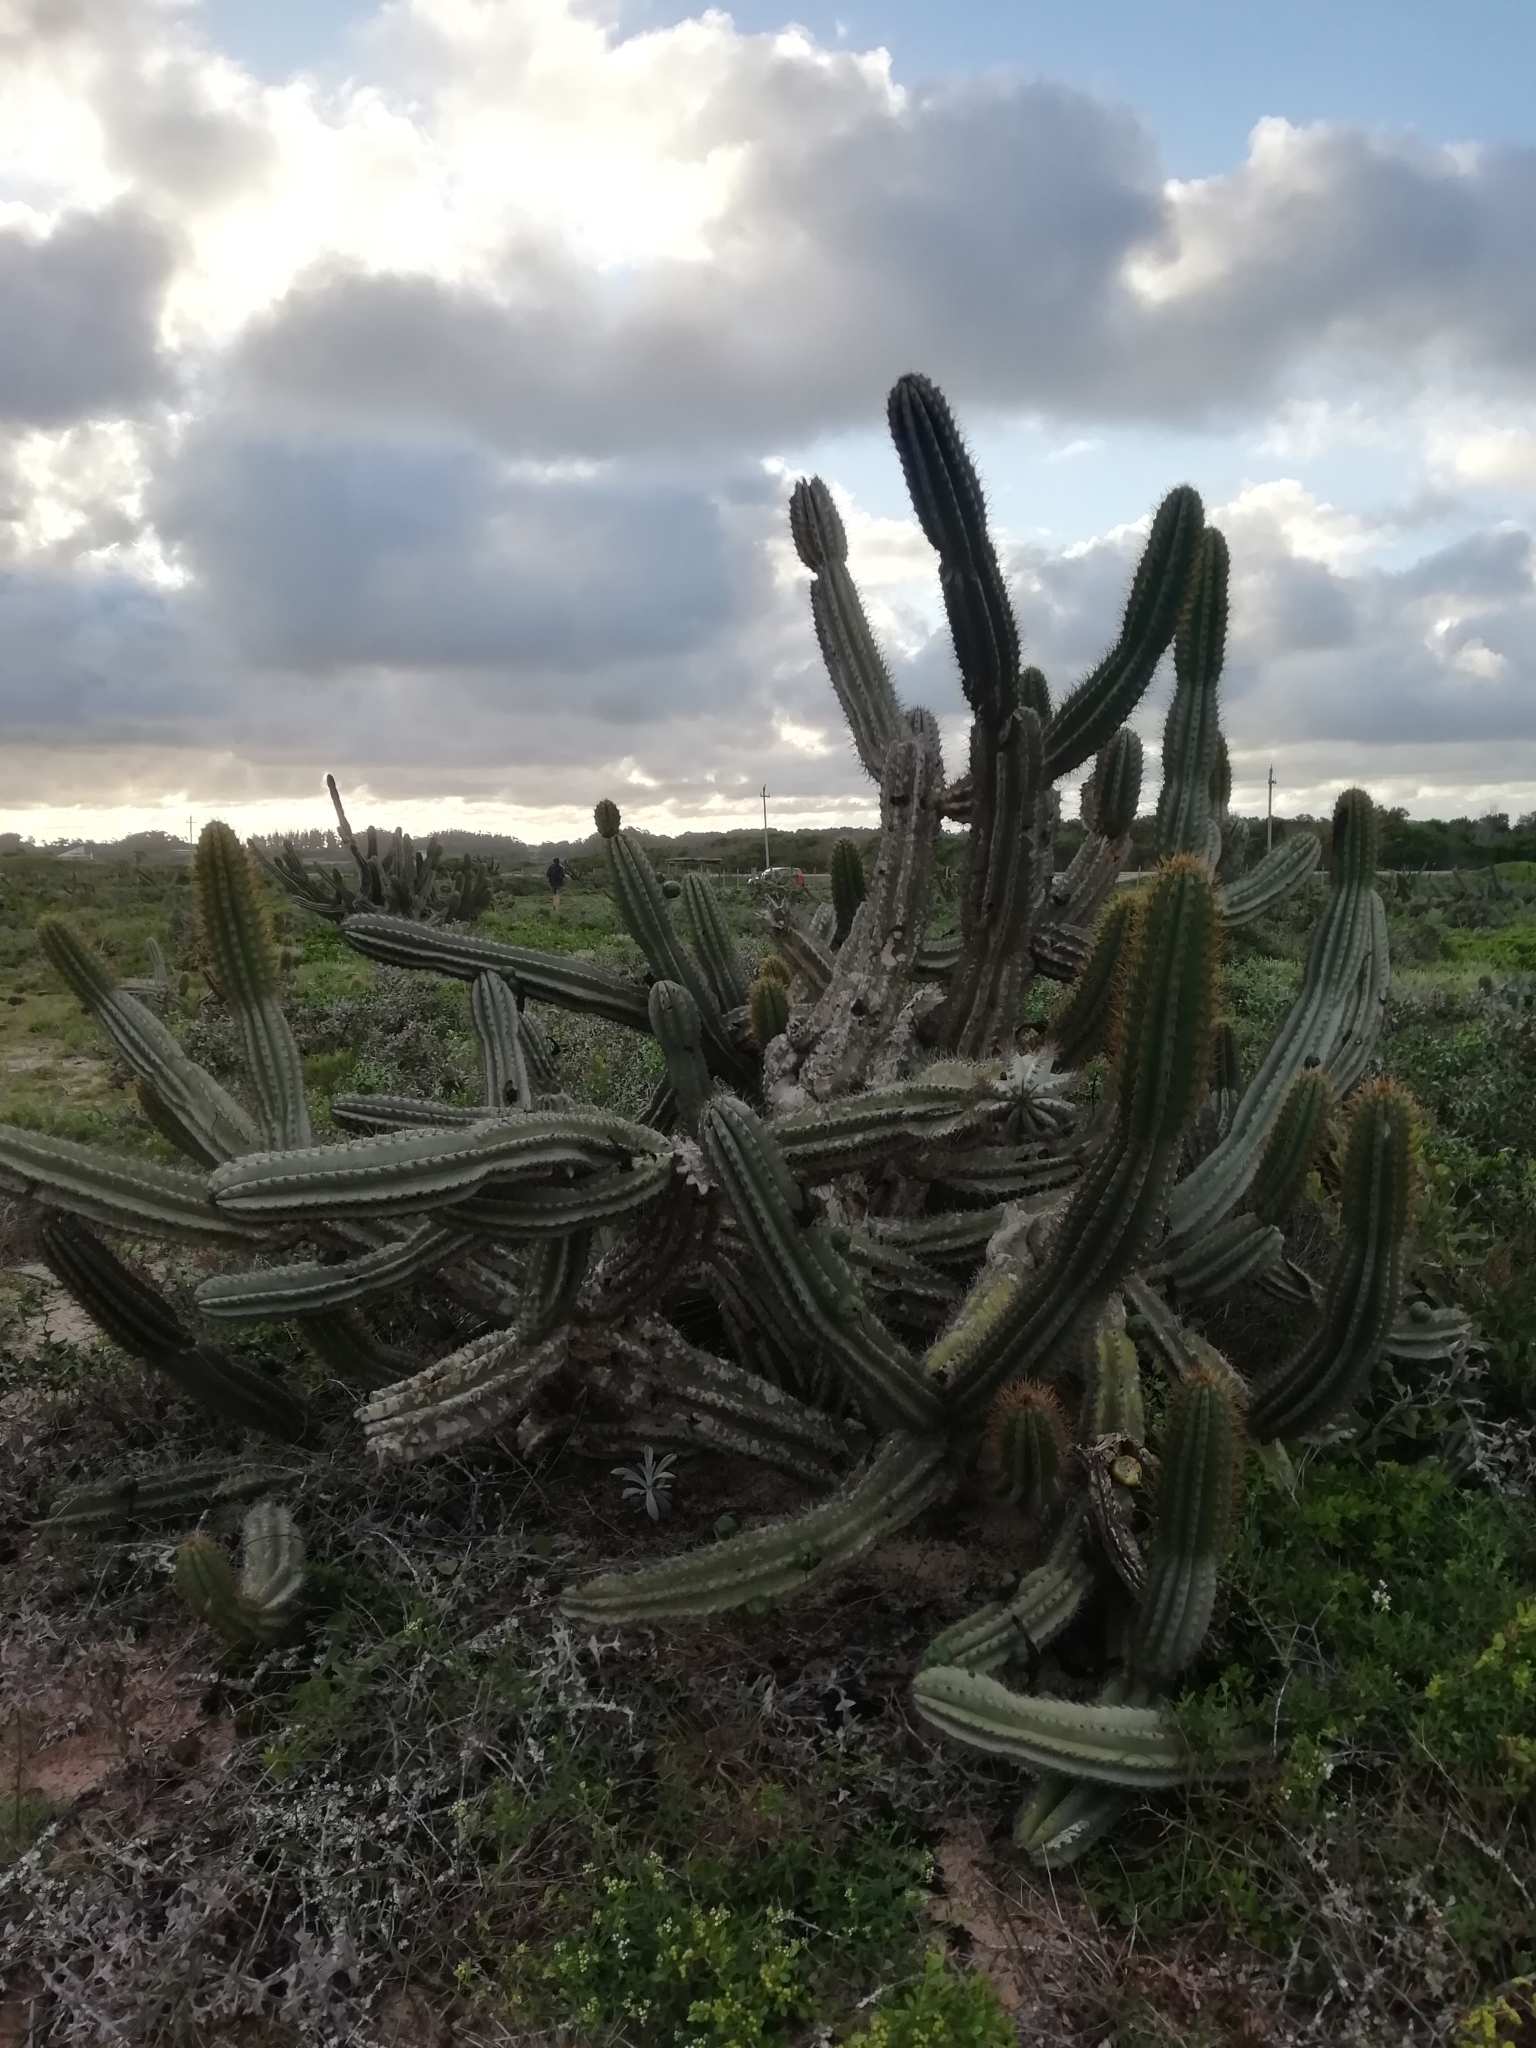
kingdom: Plantae
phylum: Tracheophyta
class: Magnoliopsida
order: Caryophyllales
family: Cactaceae
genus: Cereus
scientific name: Cereus hildmannianus
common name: Hedge cactus
